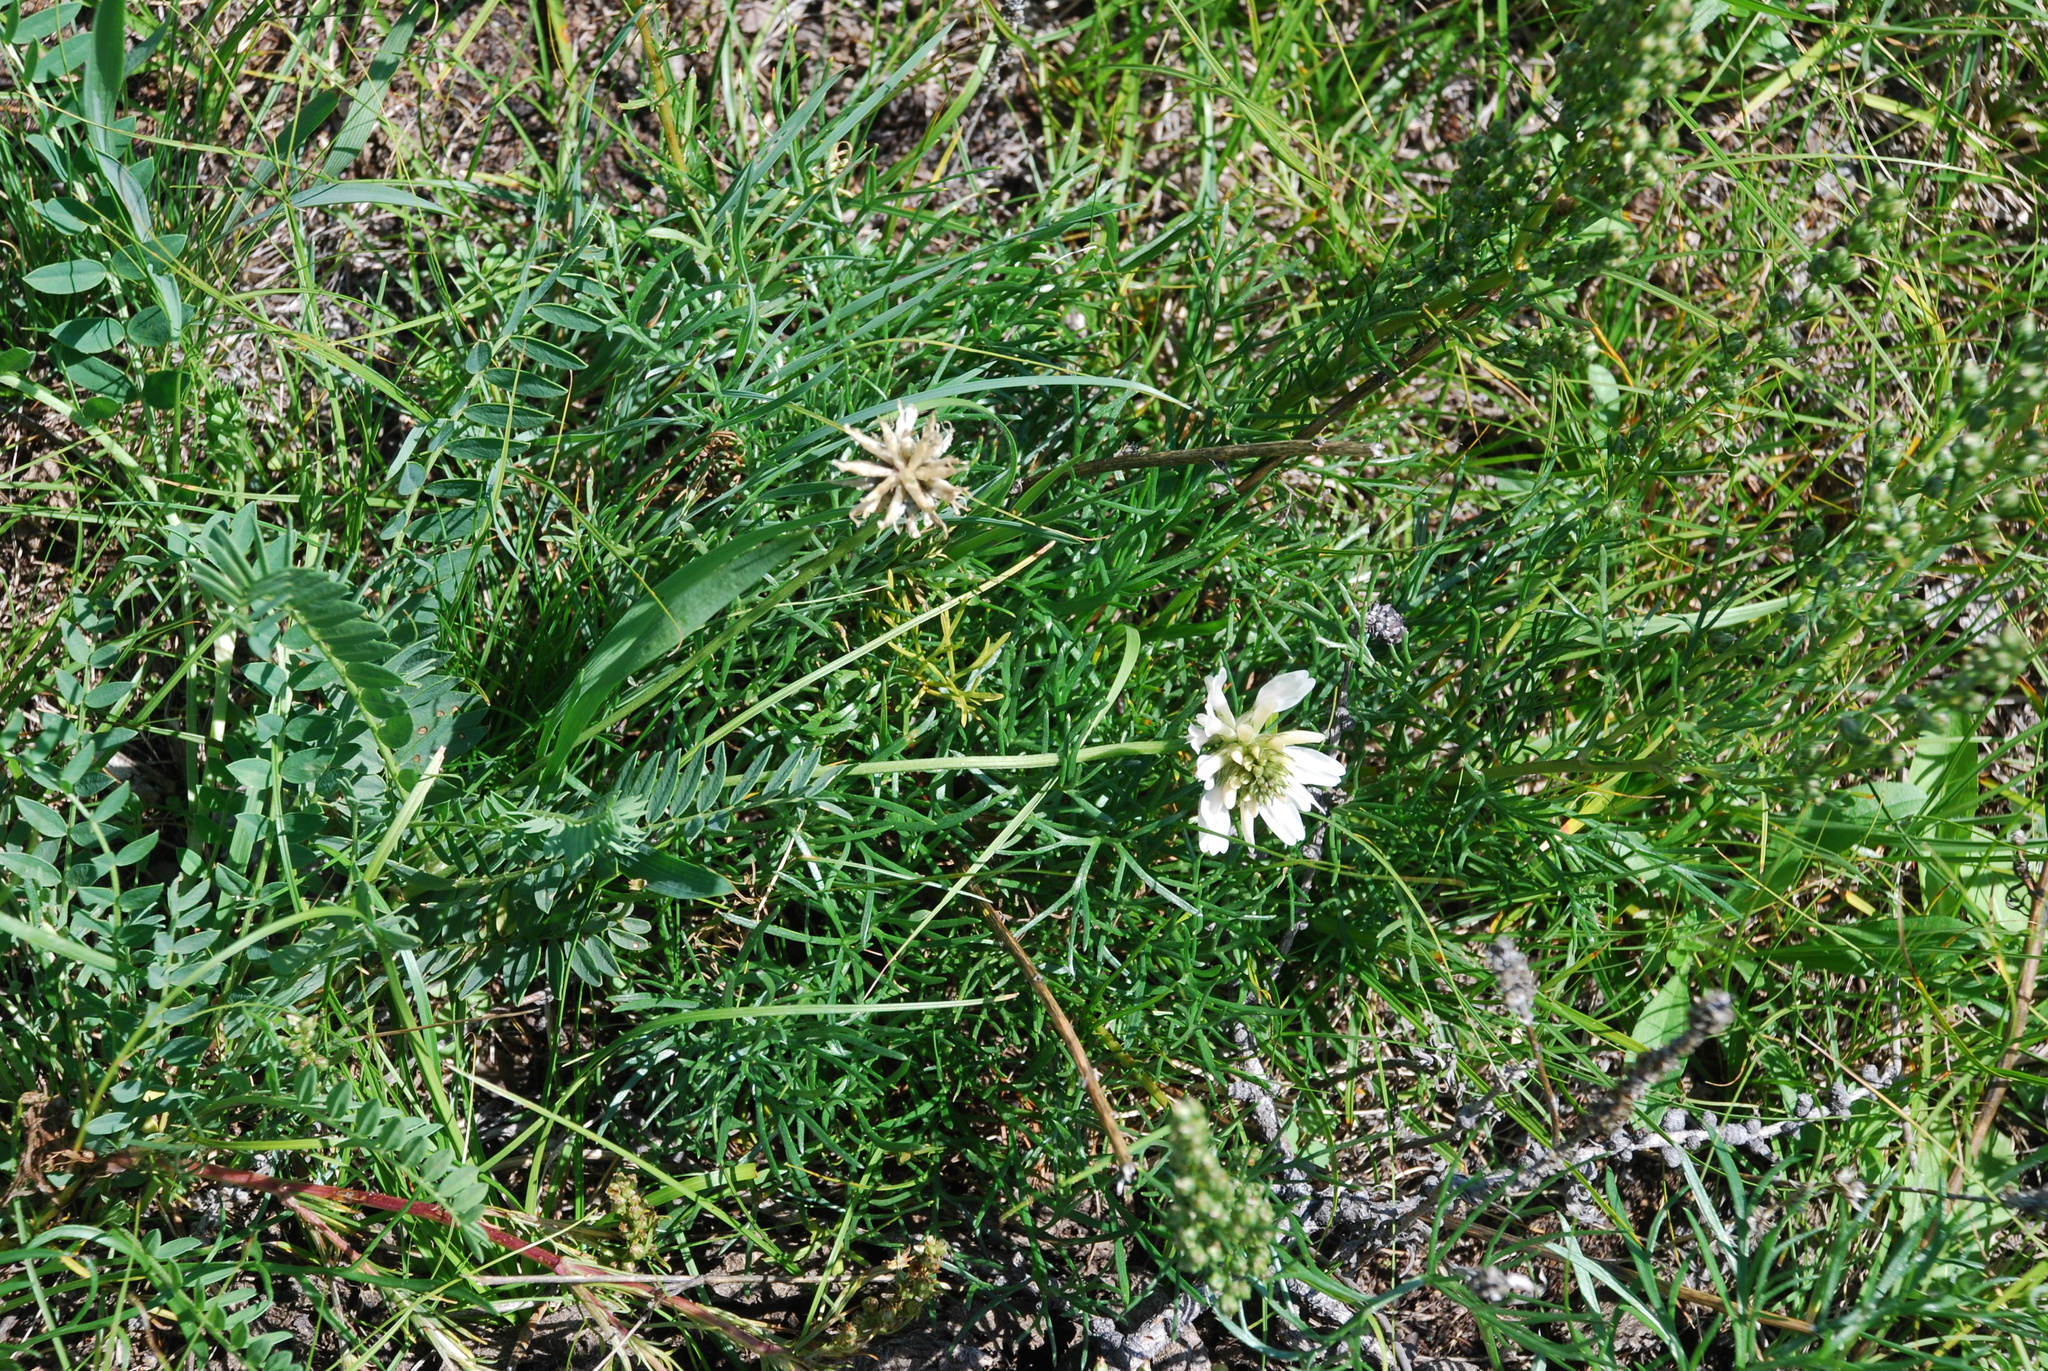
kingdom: Plantae
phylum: Tracheophyta
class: Magnoliopsida
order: Fabales
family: Fabaceae
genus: Astragalus
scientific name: Astragalus laxmannii
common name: Laxmann's milk-vetch
